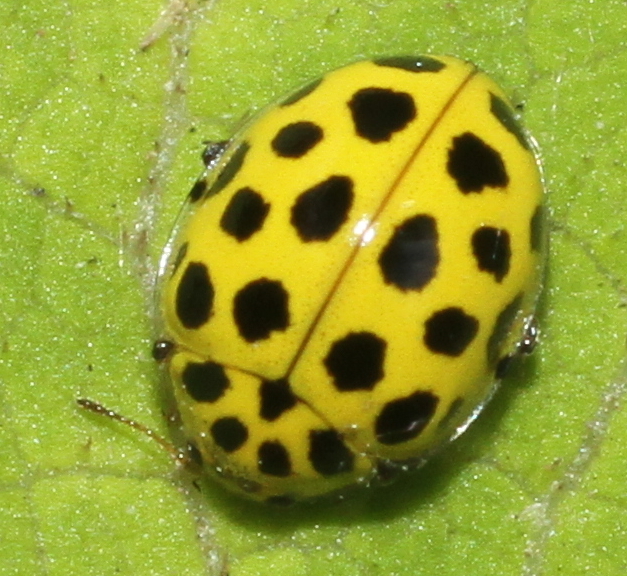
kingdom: Animalia
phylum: Arthropoda
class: Insecta
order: Coleoptera
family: Coccinellidae
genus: Psyllobora
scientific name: Psyllobora vigintiduopunctata
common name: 22-spot ladybird
